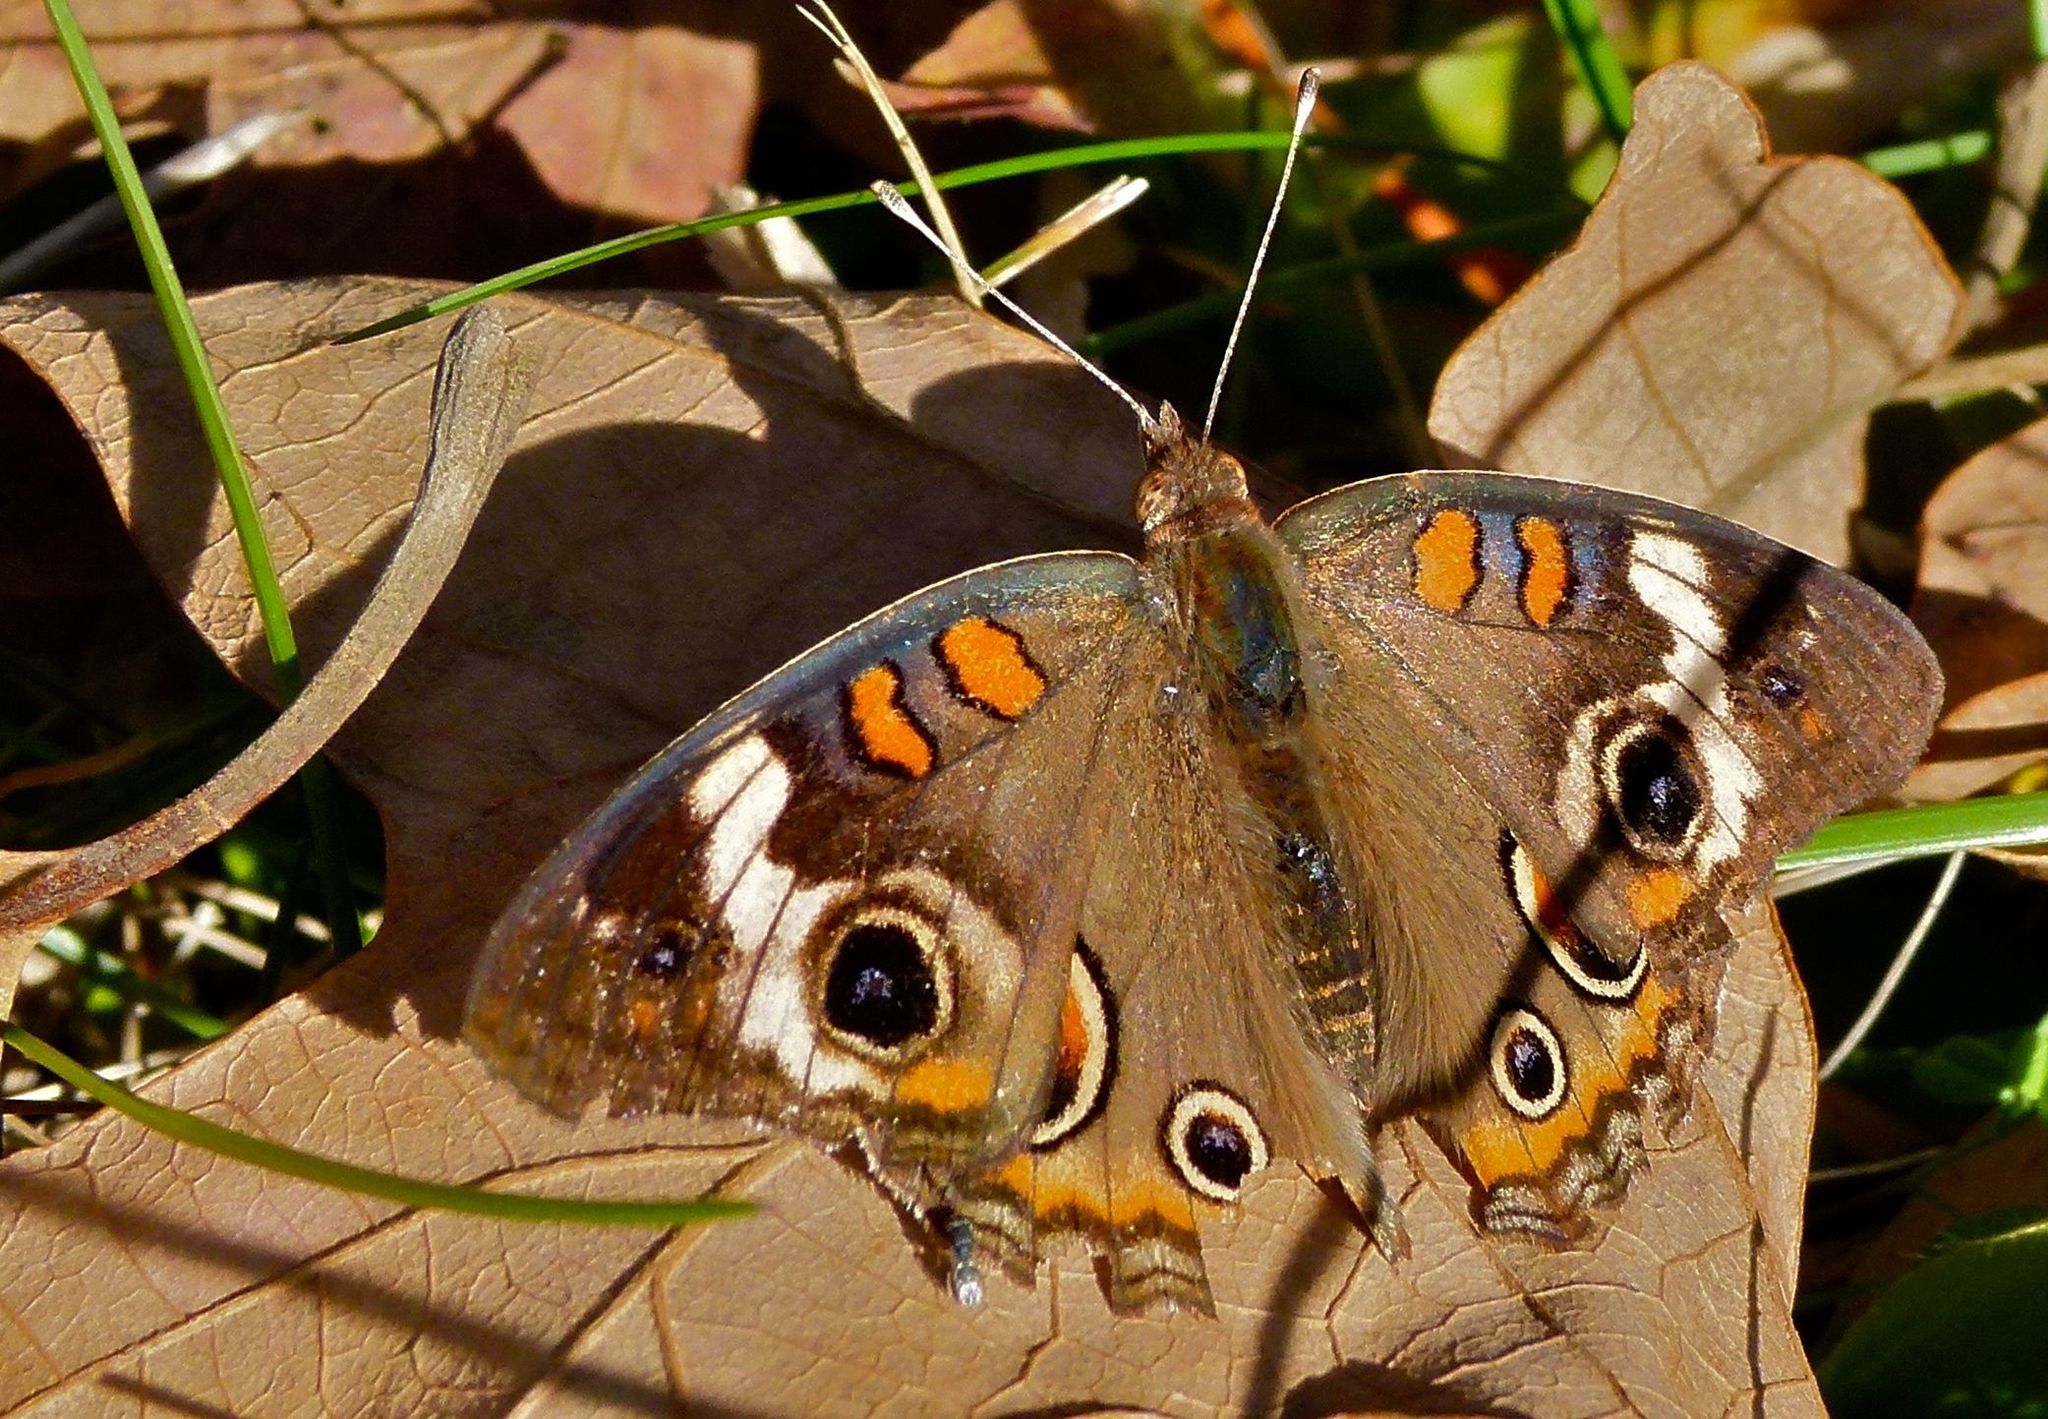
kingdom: Animalia
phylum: Arthropoda
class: Insecta
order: Lepidoptera
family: Nymphalidae
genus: Junonia
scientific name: Junonia coenia
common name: Common buckeye
